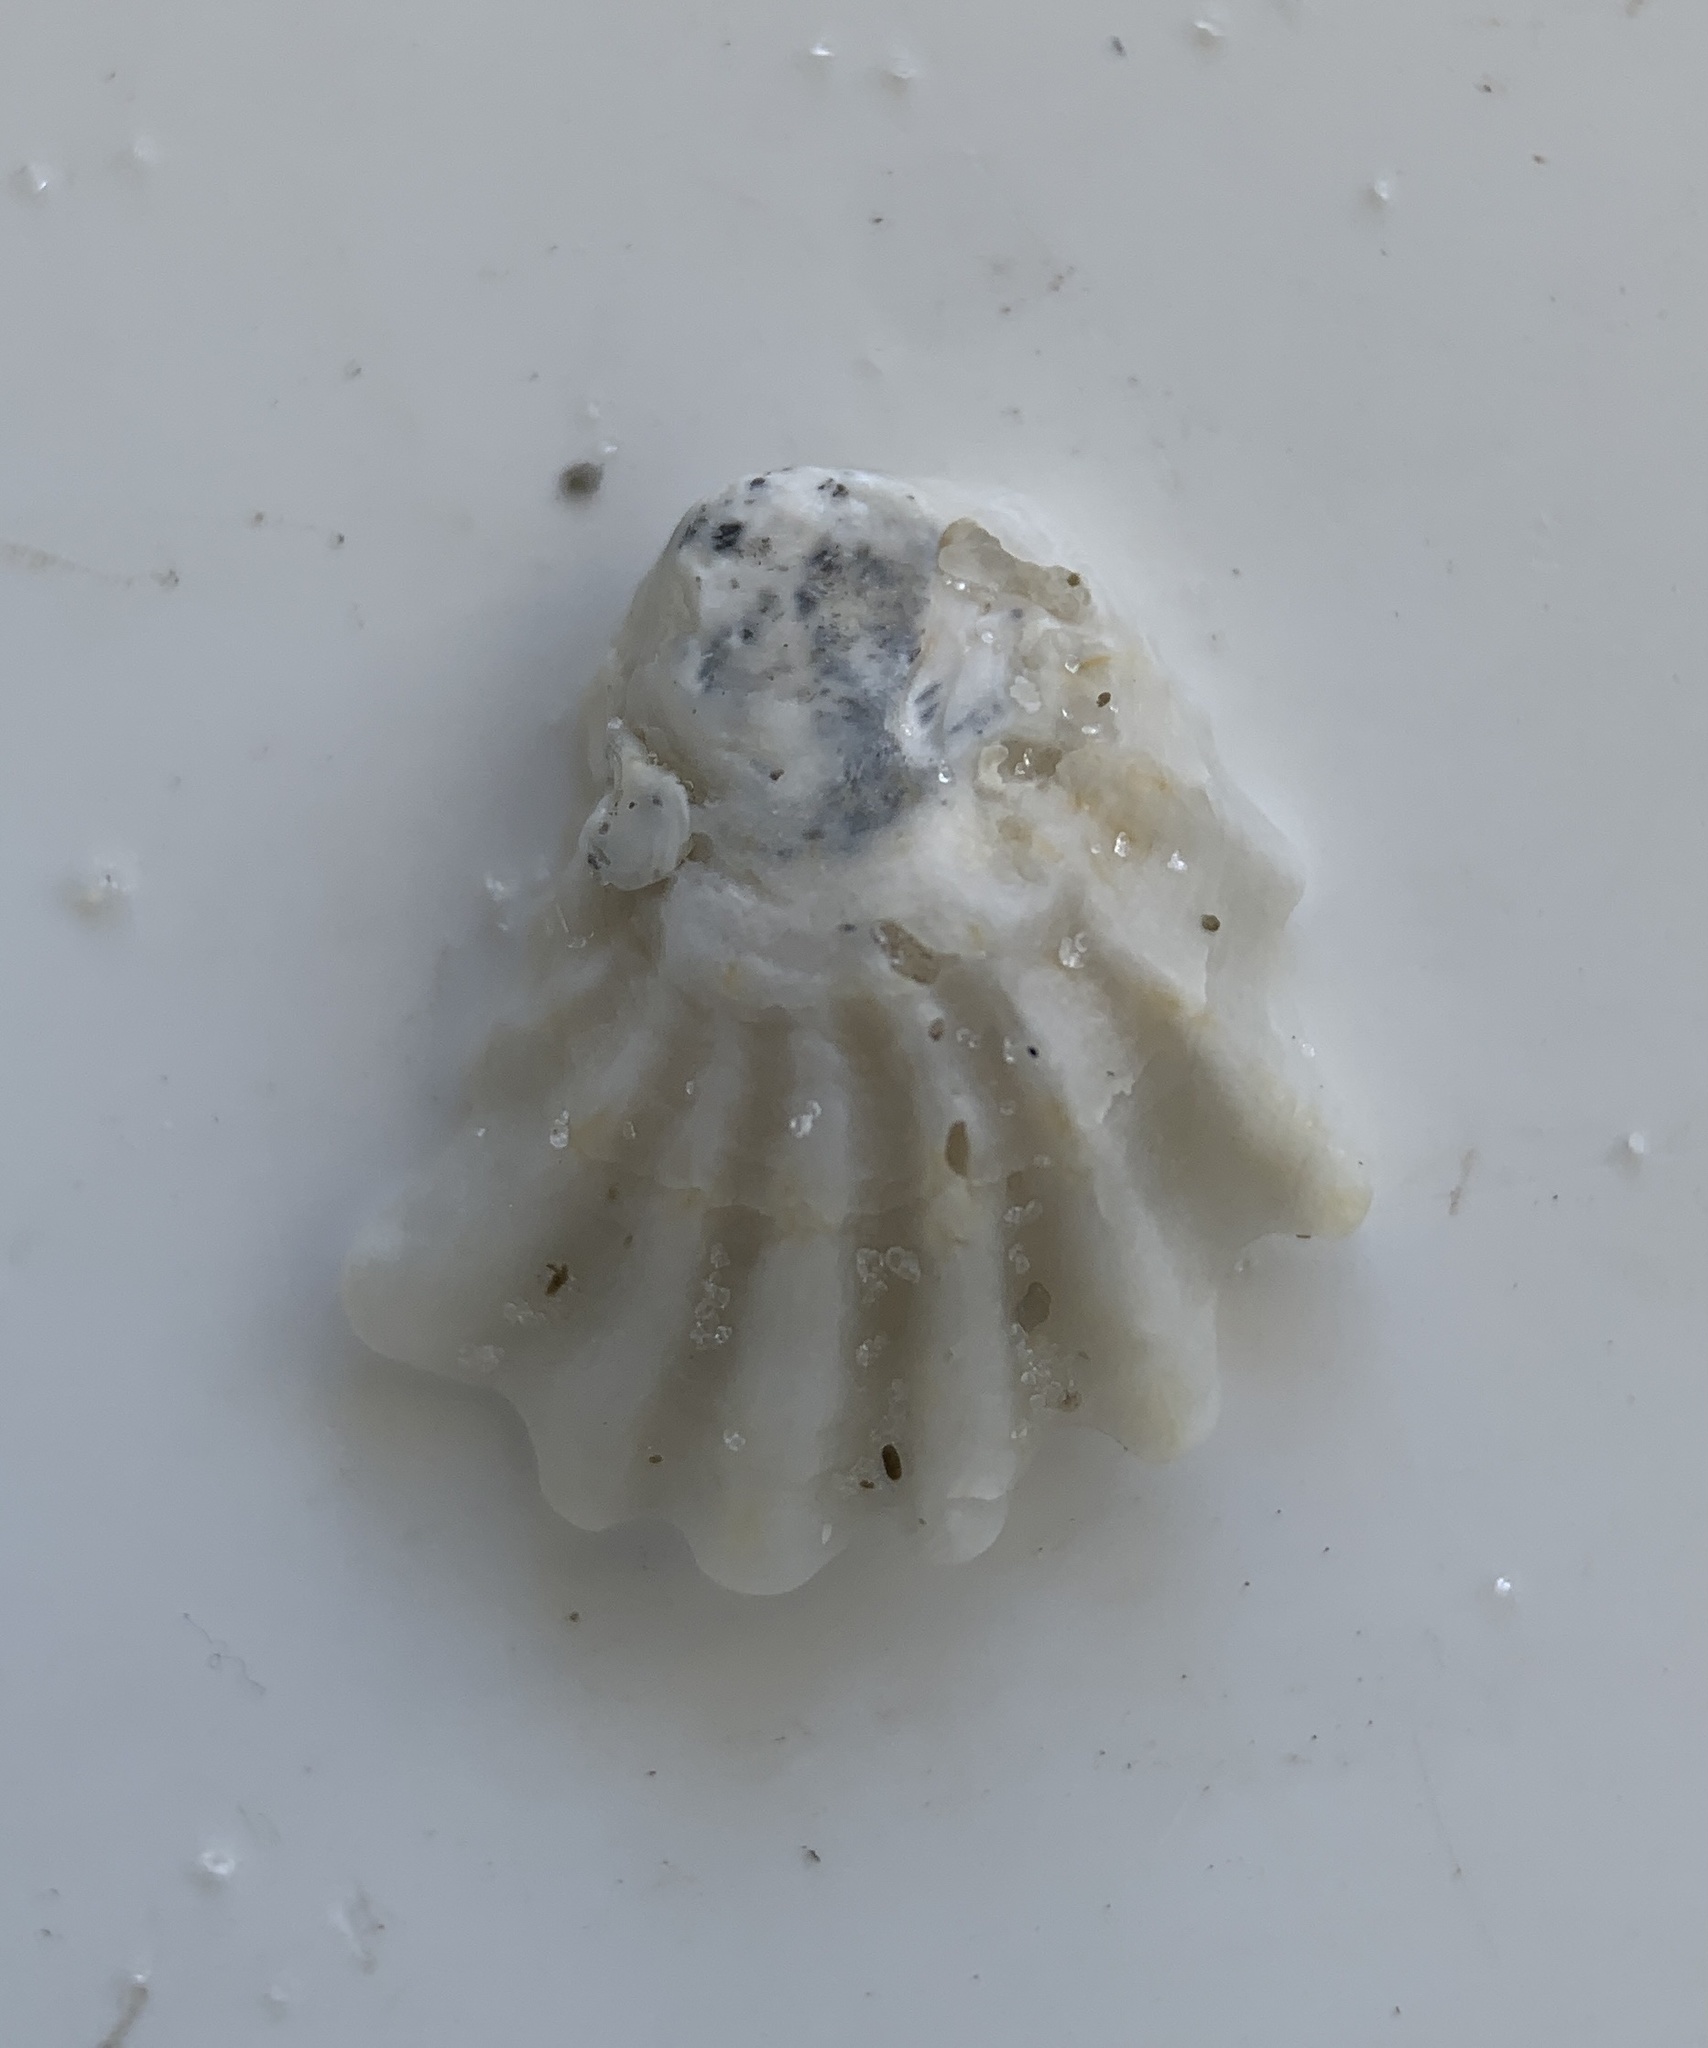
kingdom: Animalia
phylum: Mollusca
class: Bivalvia
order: Pectinida
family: Plicatulidae
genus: Plicatula
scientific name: Plicatula gibbosa
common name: Atlantic kitten's paw
